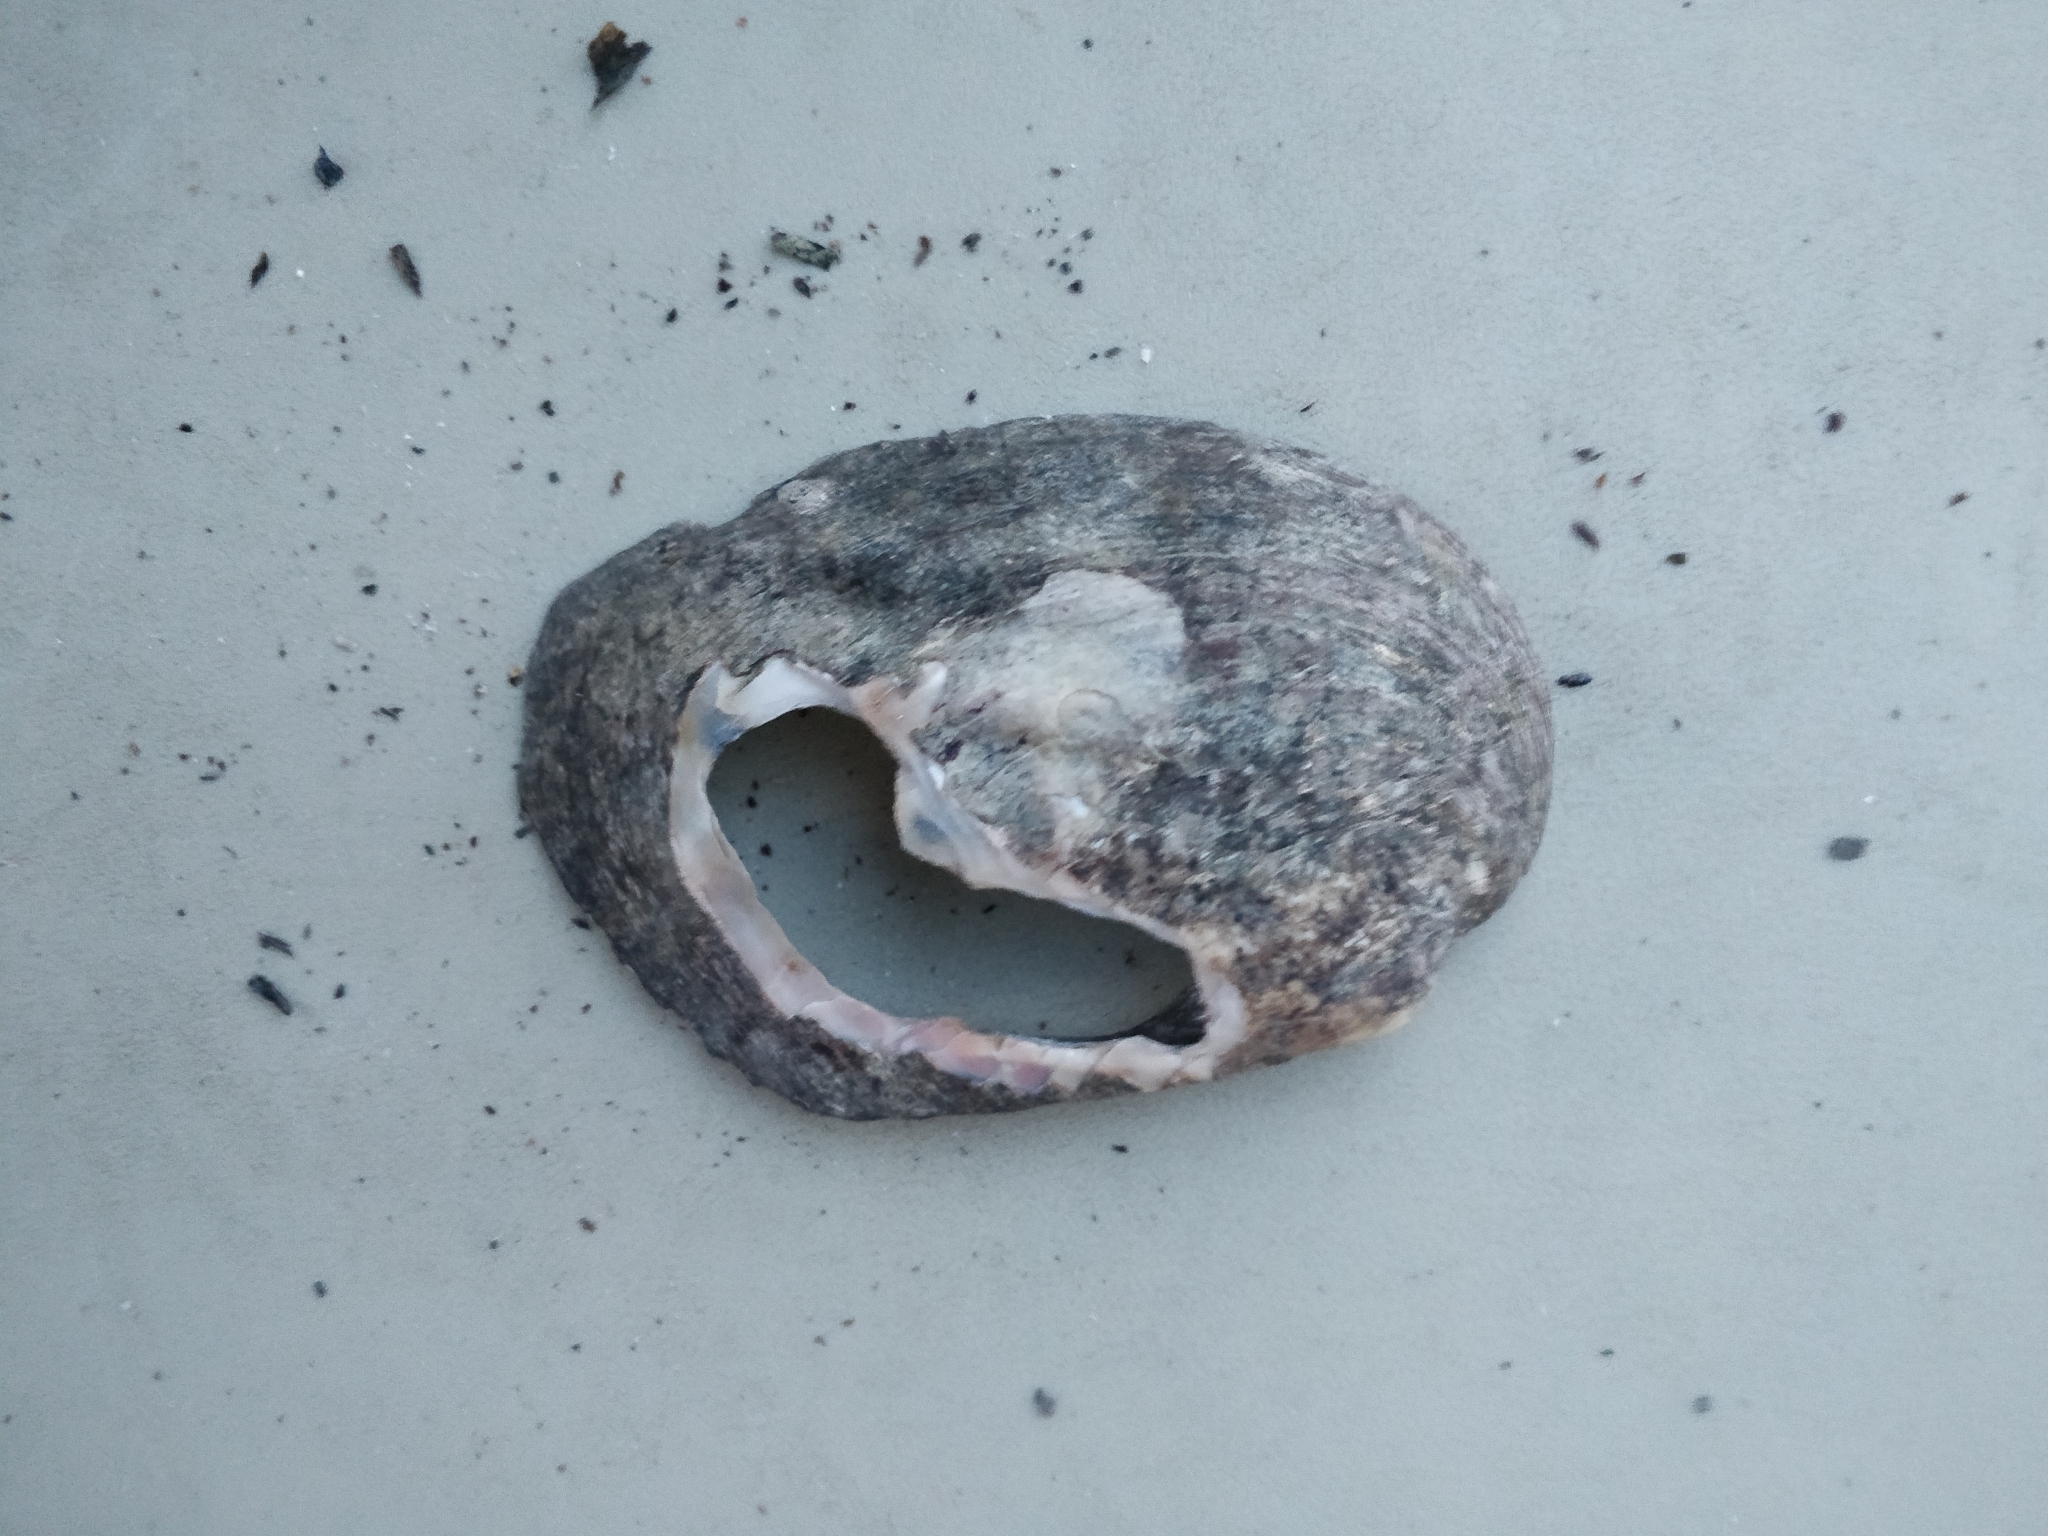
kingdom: Animalia
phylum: Mollusca
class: Bivalvia
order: Unionida
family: Unionidae
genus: Amblema
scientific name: Amblema plicata
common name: Threeridge
